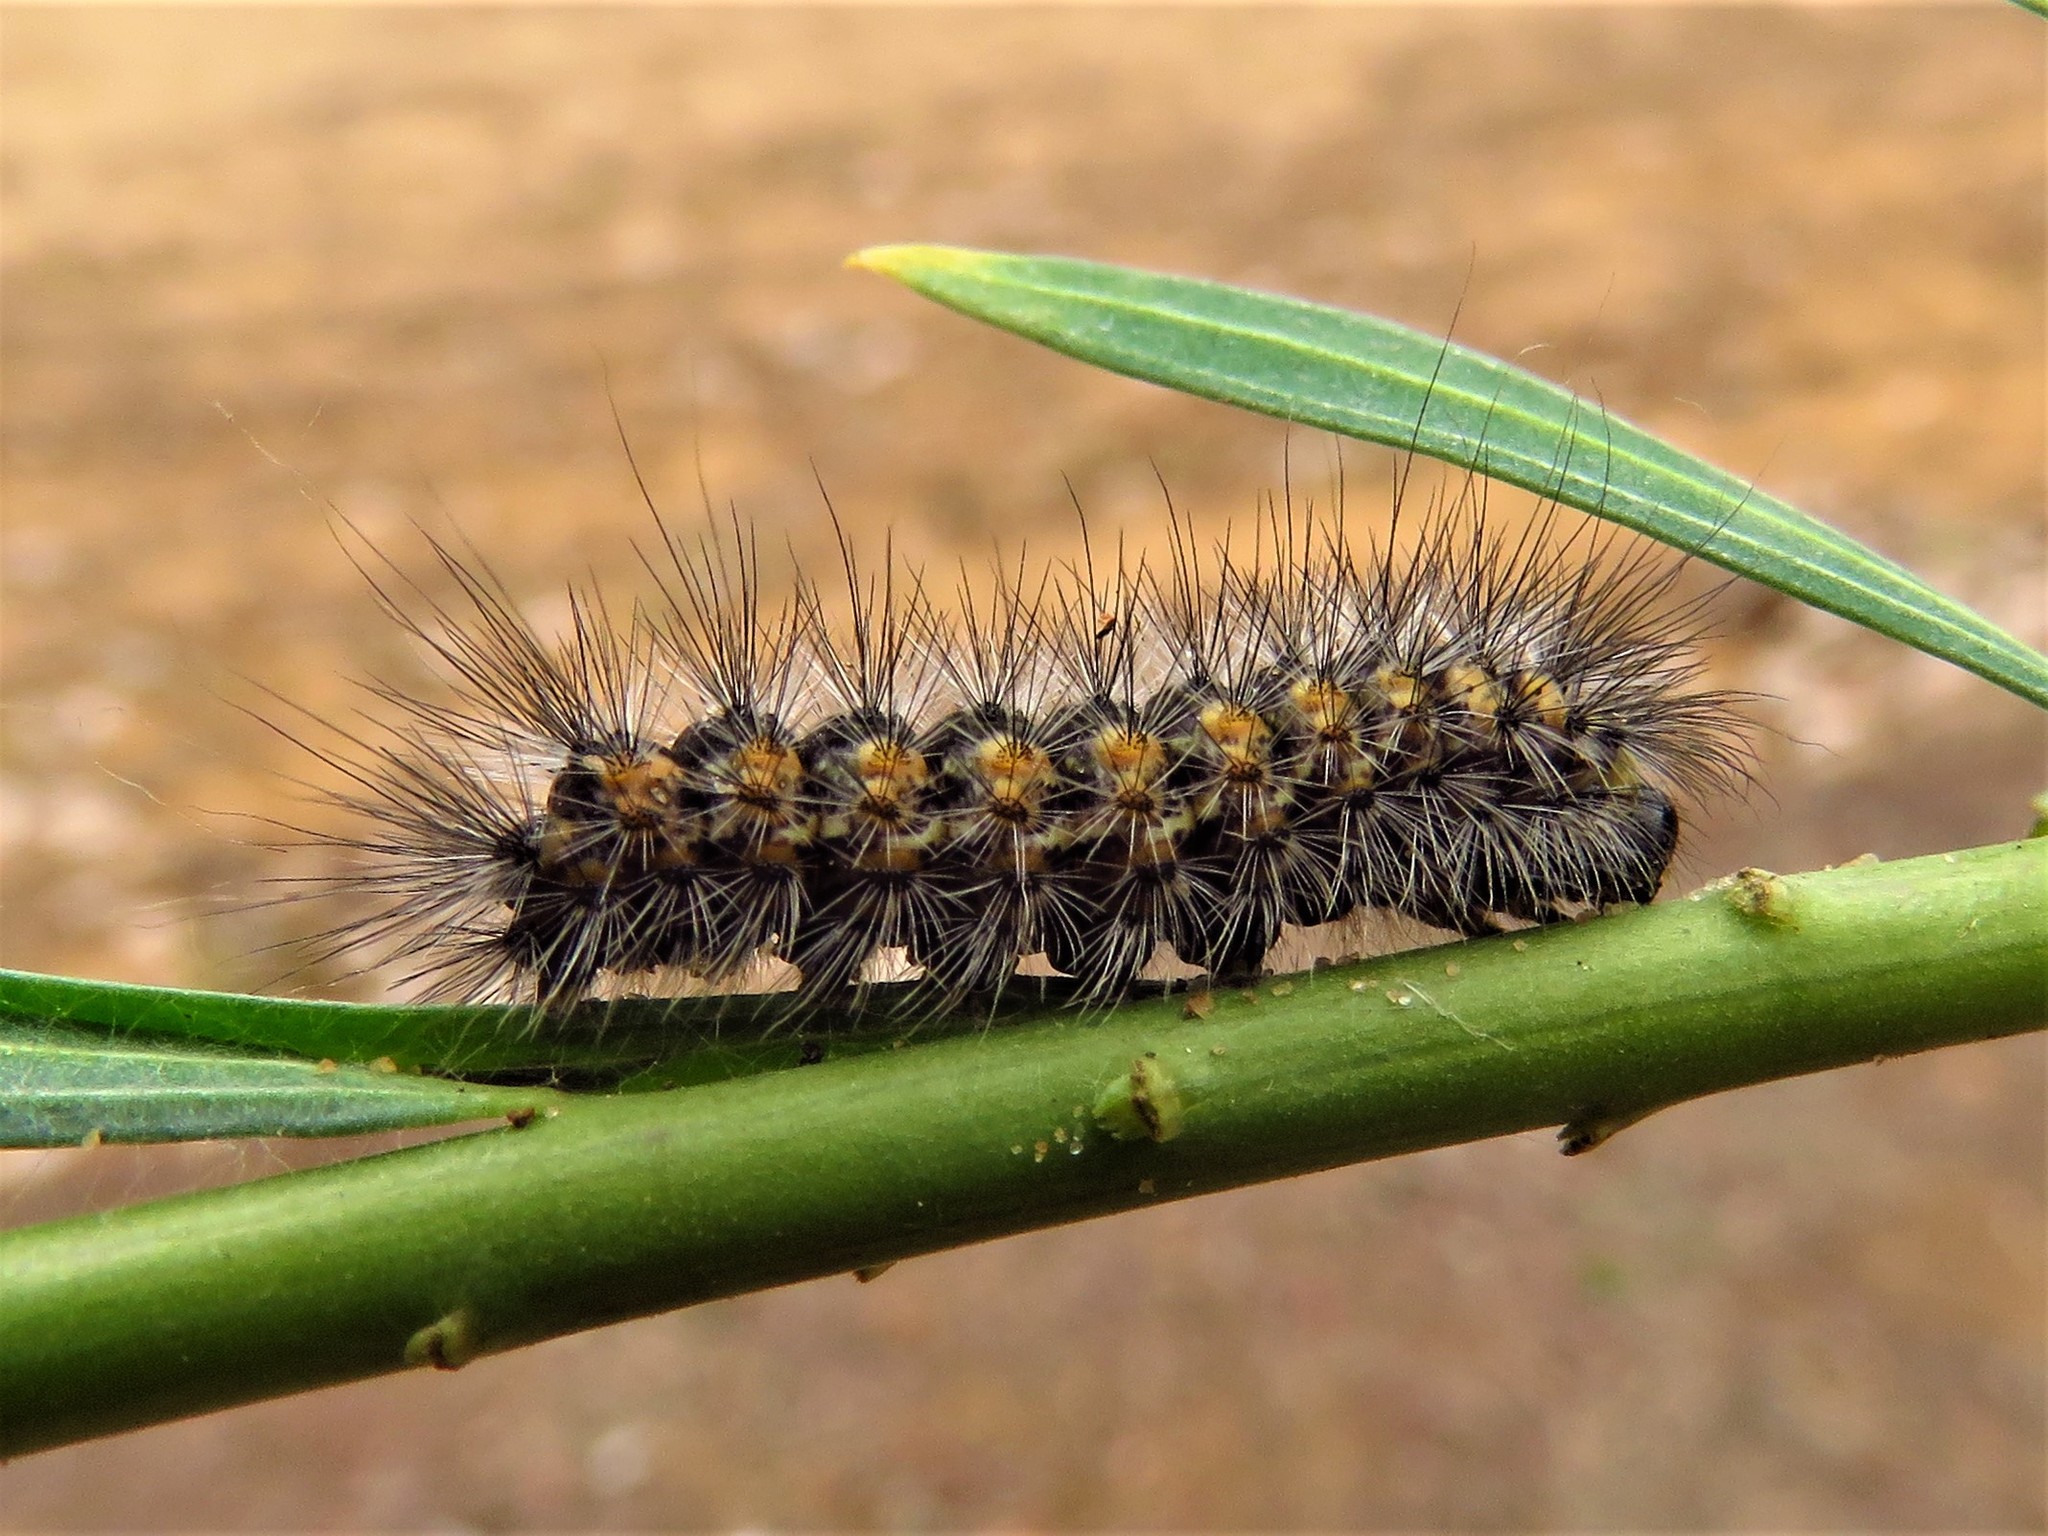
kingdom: Animalia
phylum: Arthropoda
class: Insecta
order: Lepidoptera
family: Erebidae
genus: Estigmene
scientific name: Estigmene acrea
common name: Salt marsh moth
